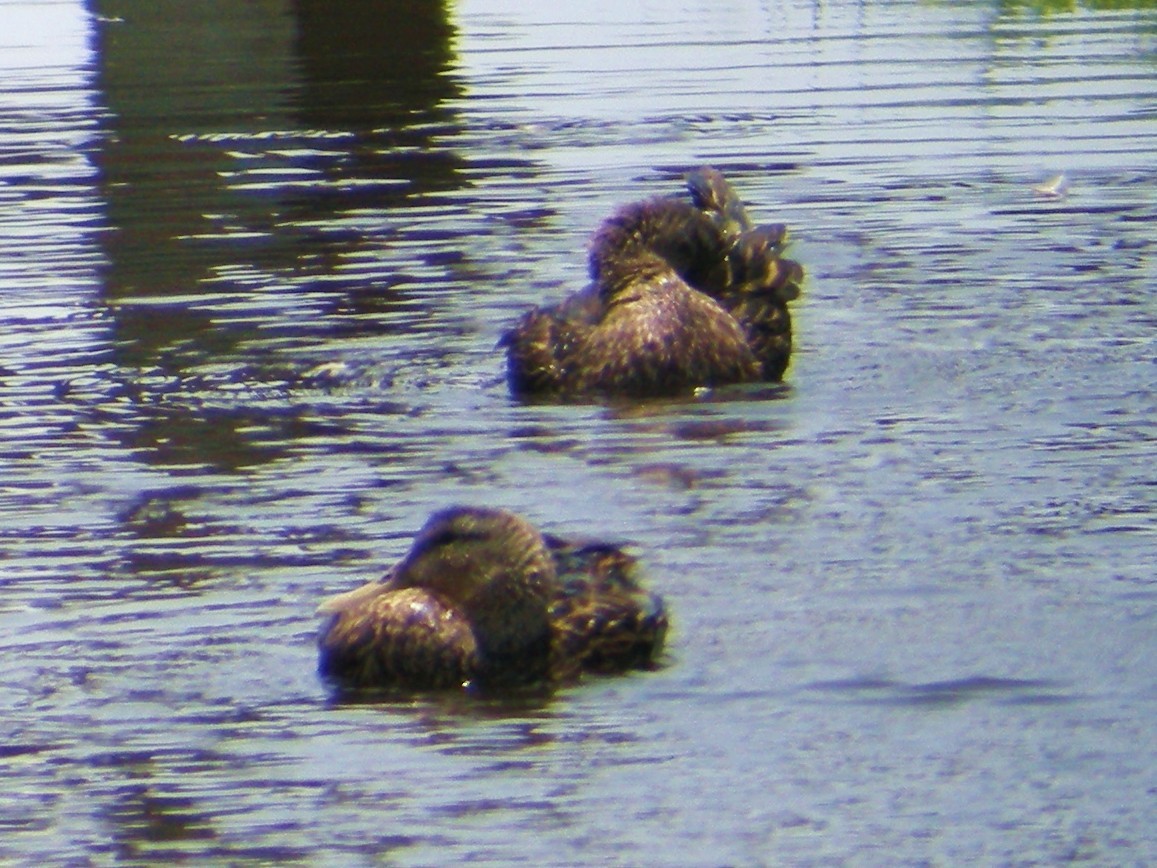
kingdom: Animalia
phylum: Chordata
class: Aves
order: Anseriformes
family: Anatidae
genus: Anas
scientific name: Anas fulvigula
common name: Mottled duck
